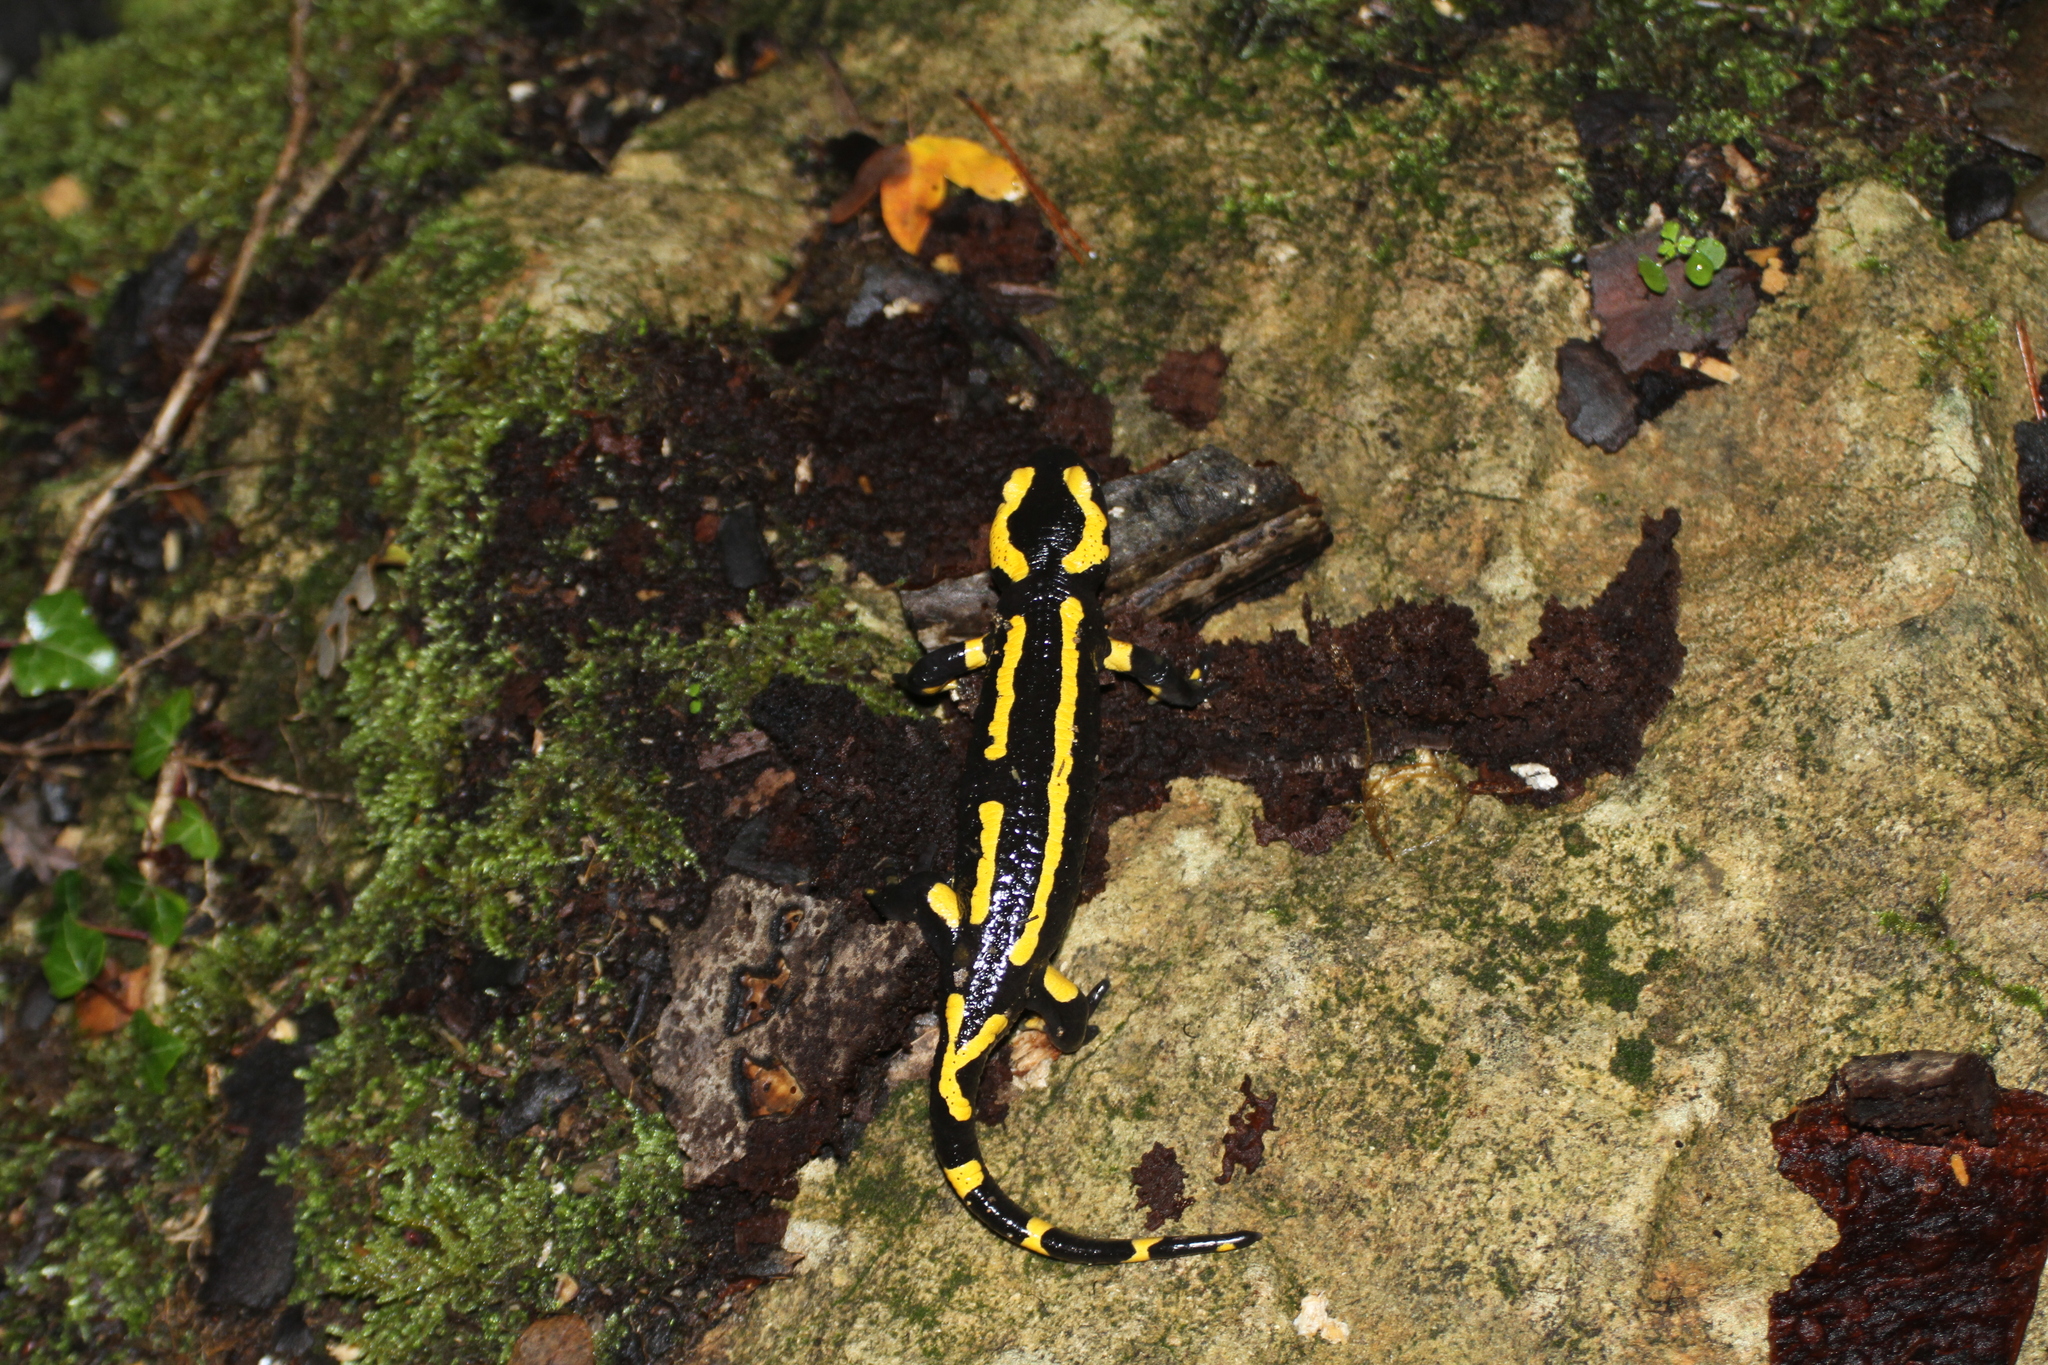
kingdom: Animalia
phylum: Chordata
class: Amphibia
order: Caudata
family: Salamandridae
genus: Salamandra
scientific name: Salamandra salamandra
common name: Fire salamander
